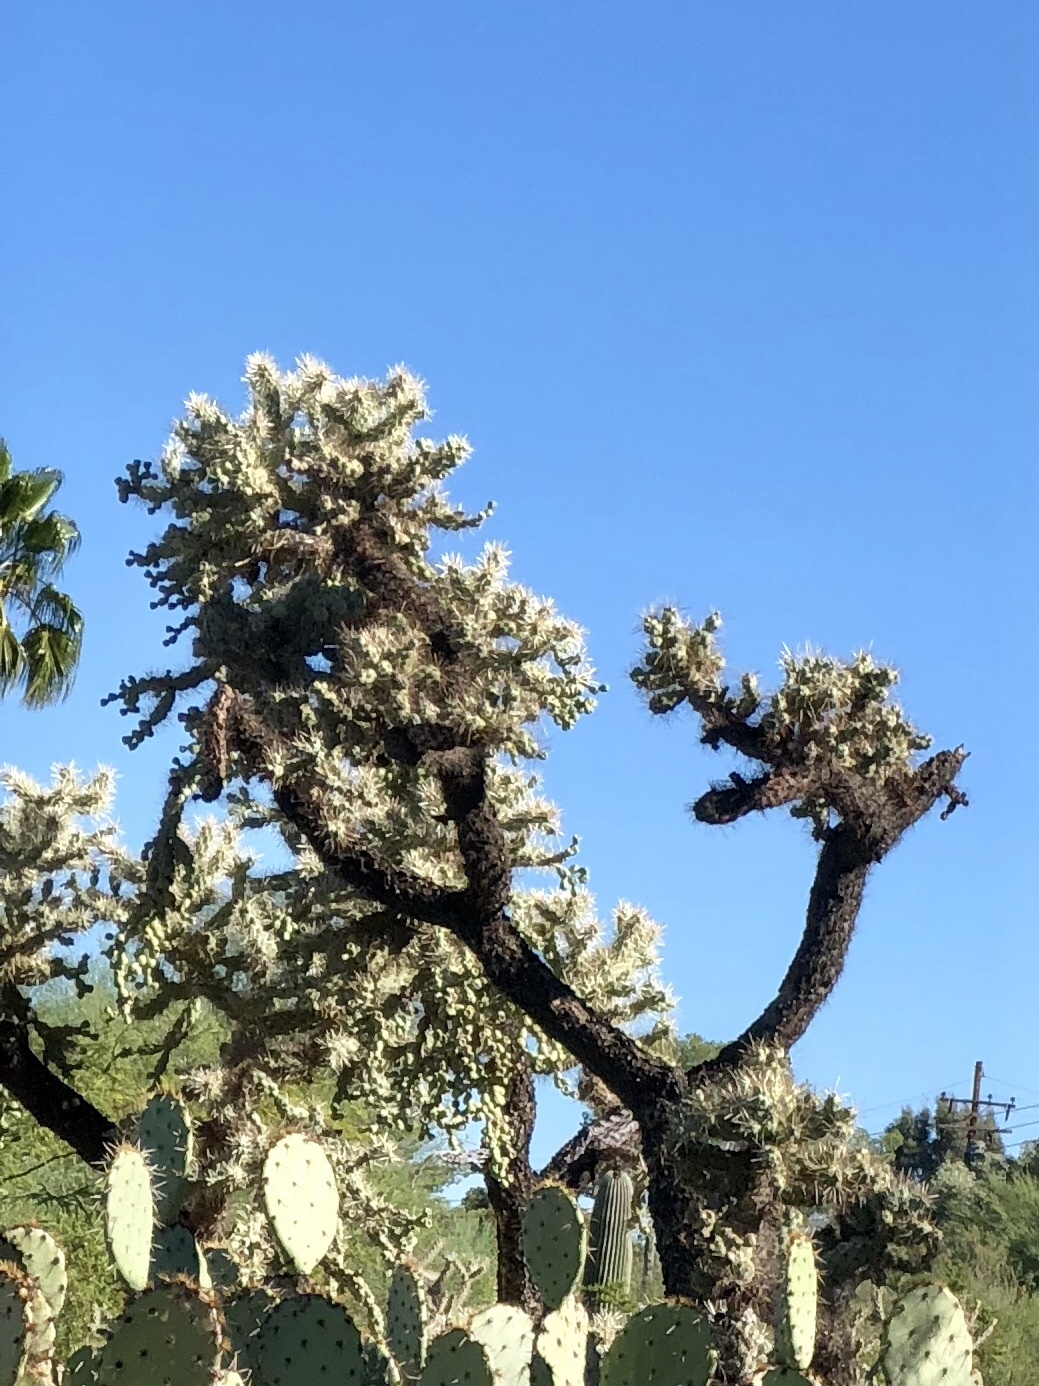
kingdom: Plantae
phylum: Tracheophyta
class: Magnoliopsida
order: Caryophyllales
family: Cactaceae
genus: Cylindropuntia
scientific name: Cylindropuntia fulgida
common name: Jumping cholla
